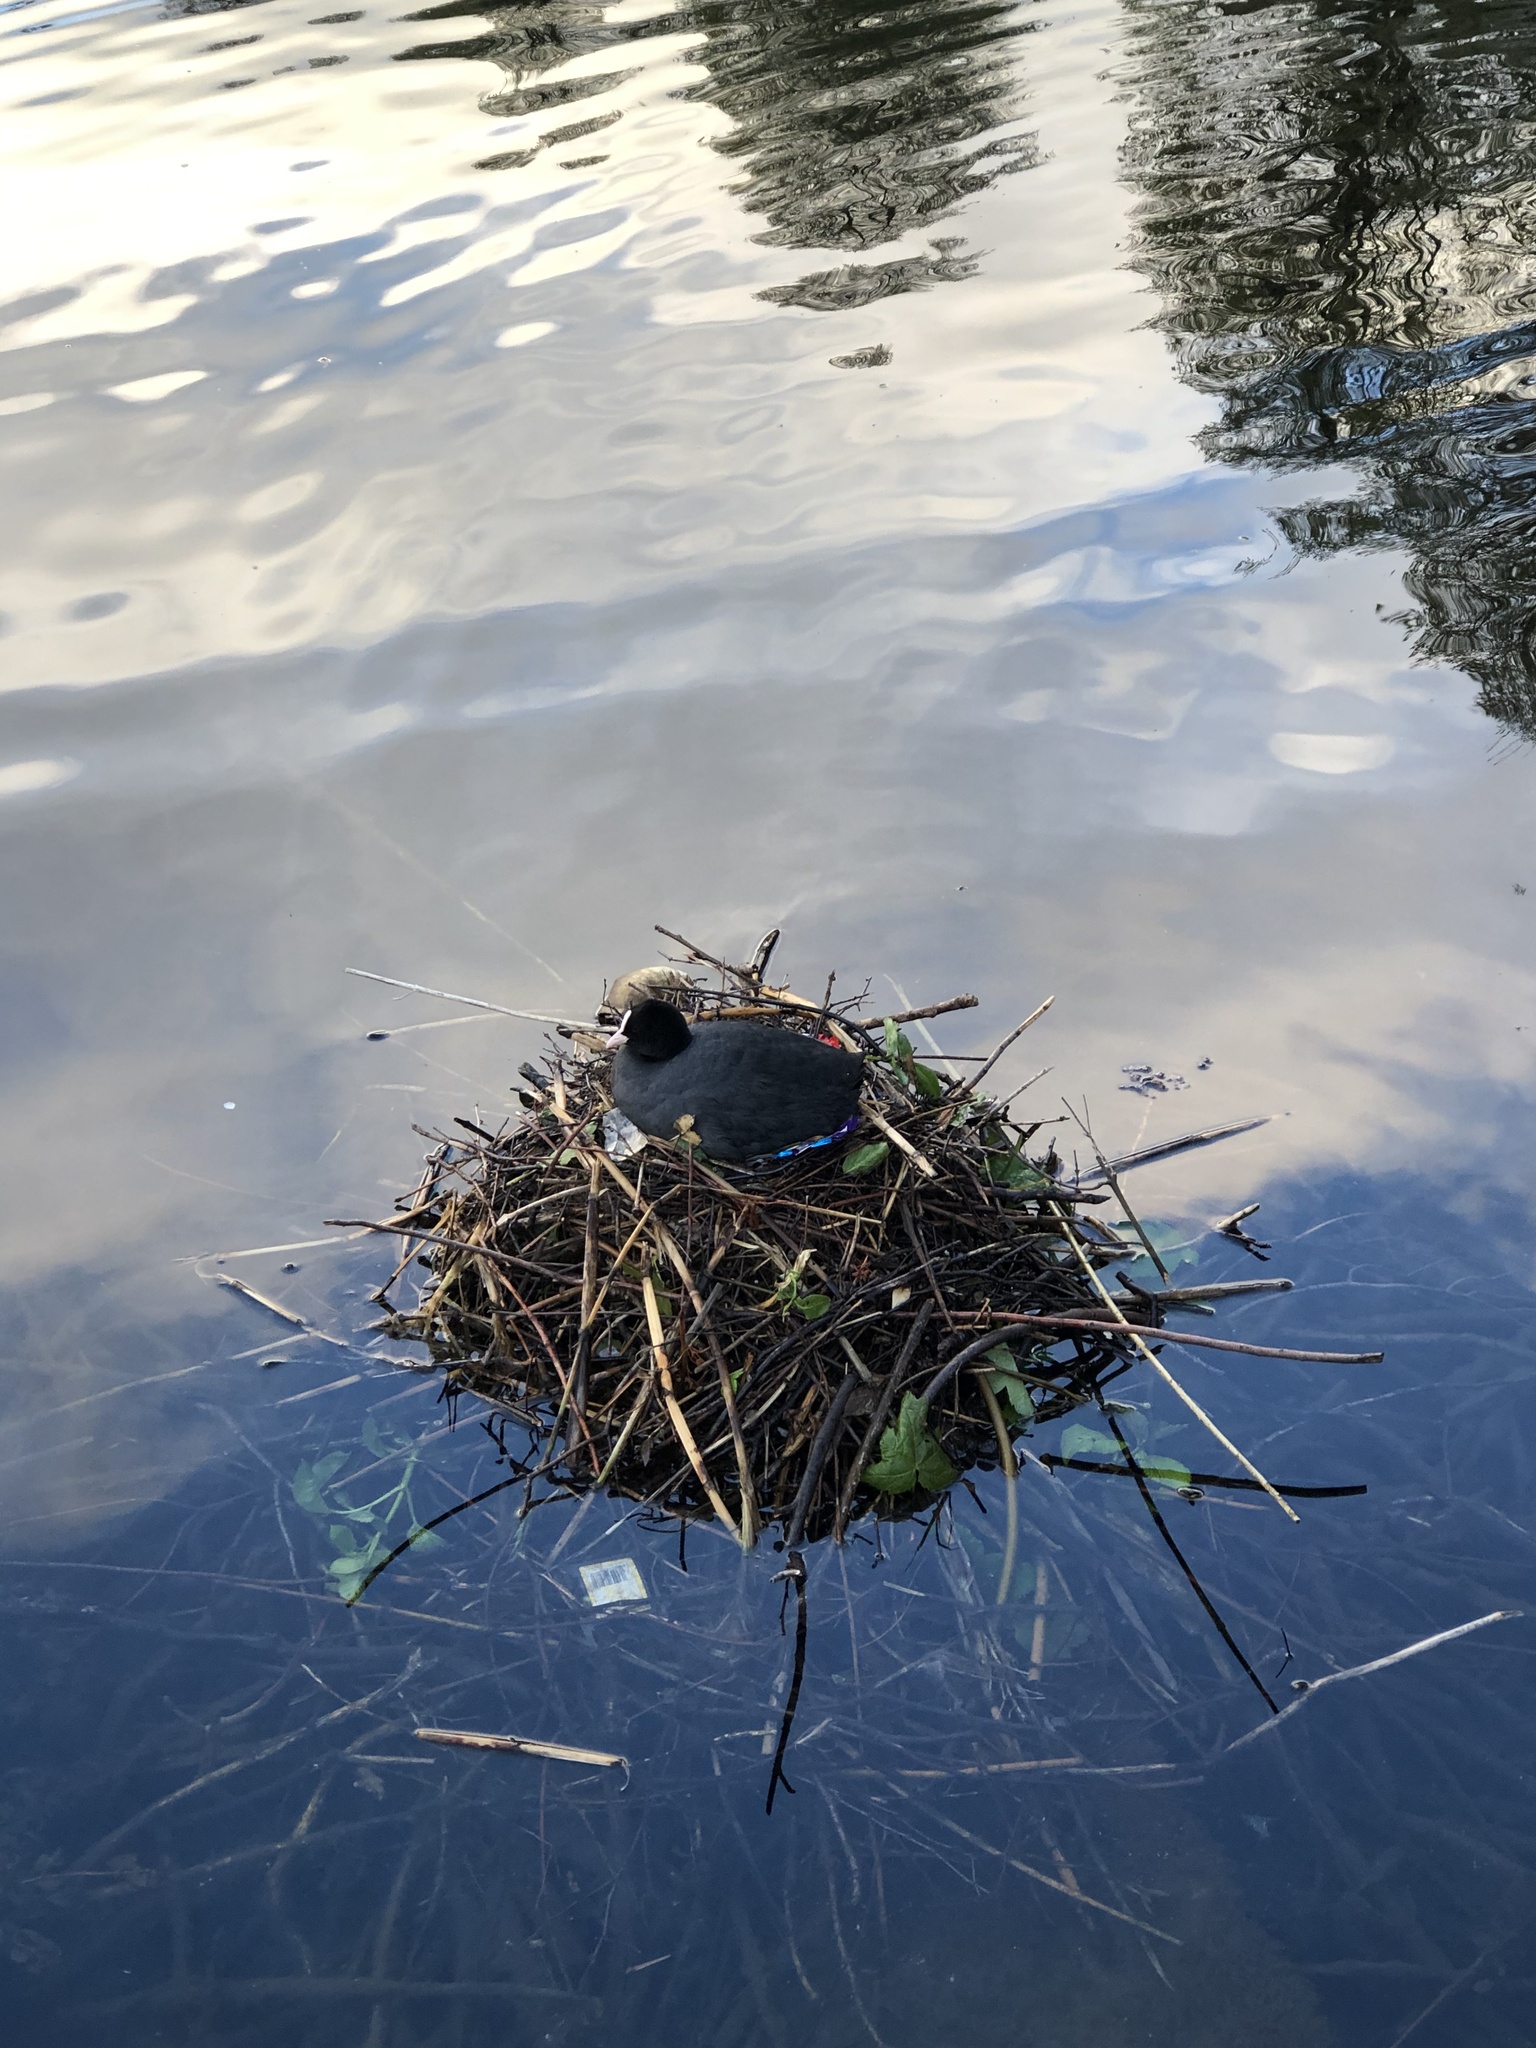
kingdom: Animalia
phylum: Chordata
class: Aves
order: Gruiformes
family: Rallidae
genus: Fulica
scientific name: Fulica atra
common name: Eurasian coot
